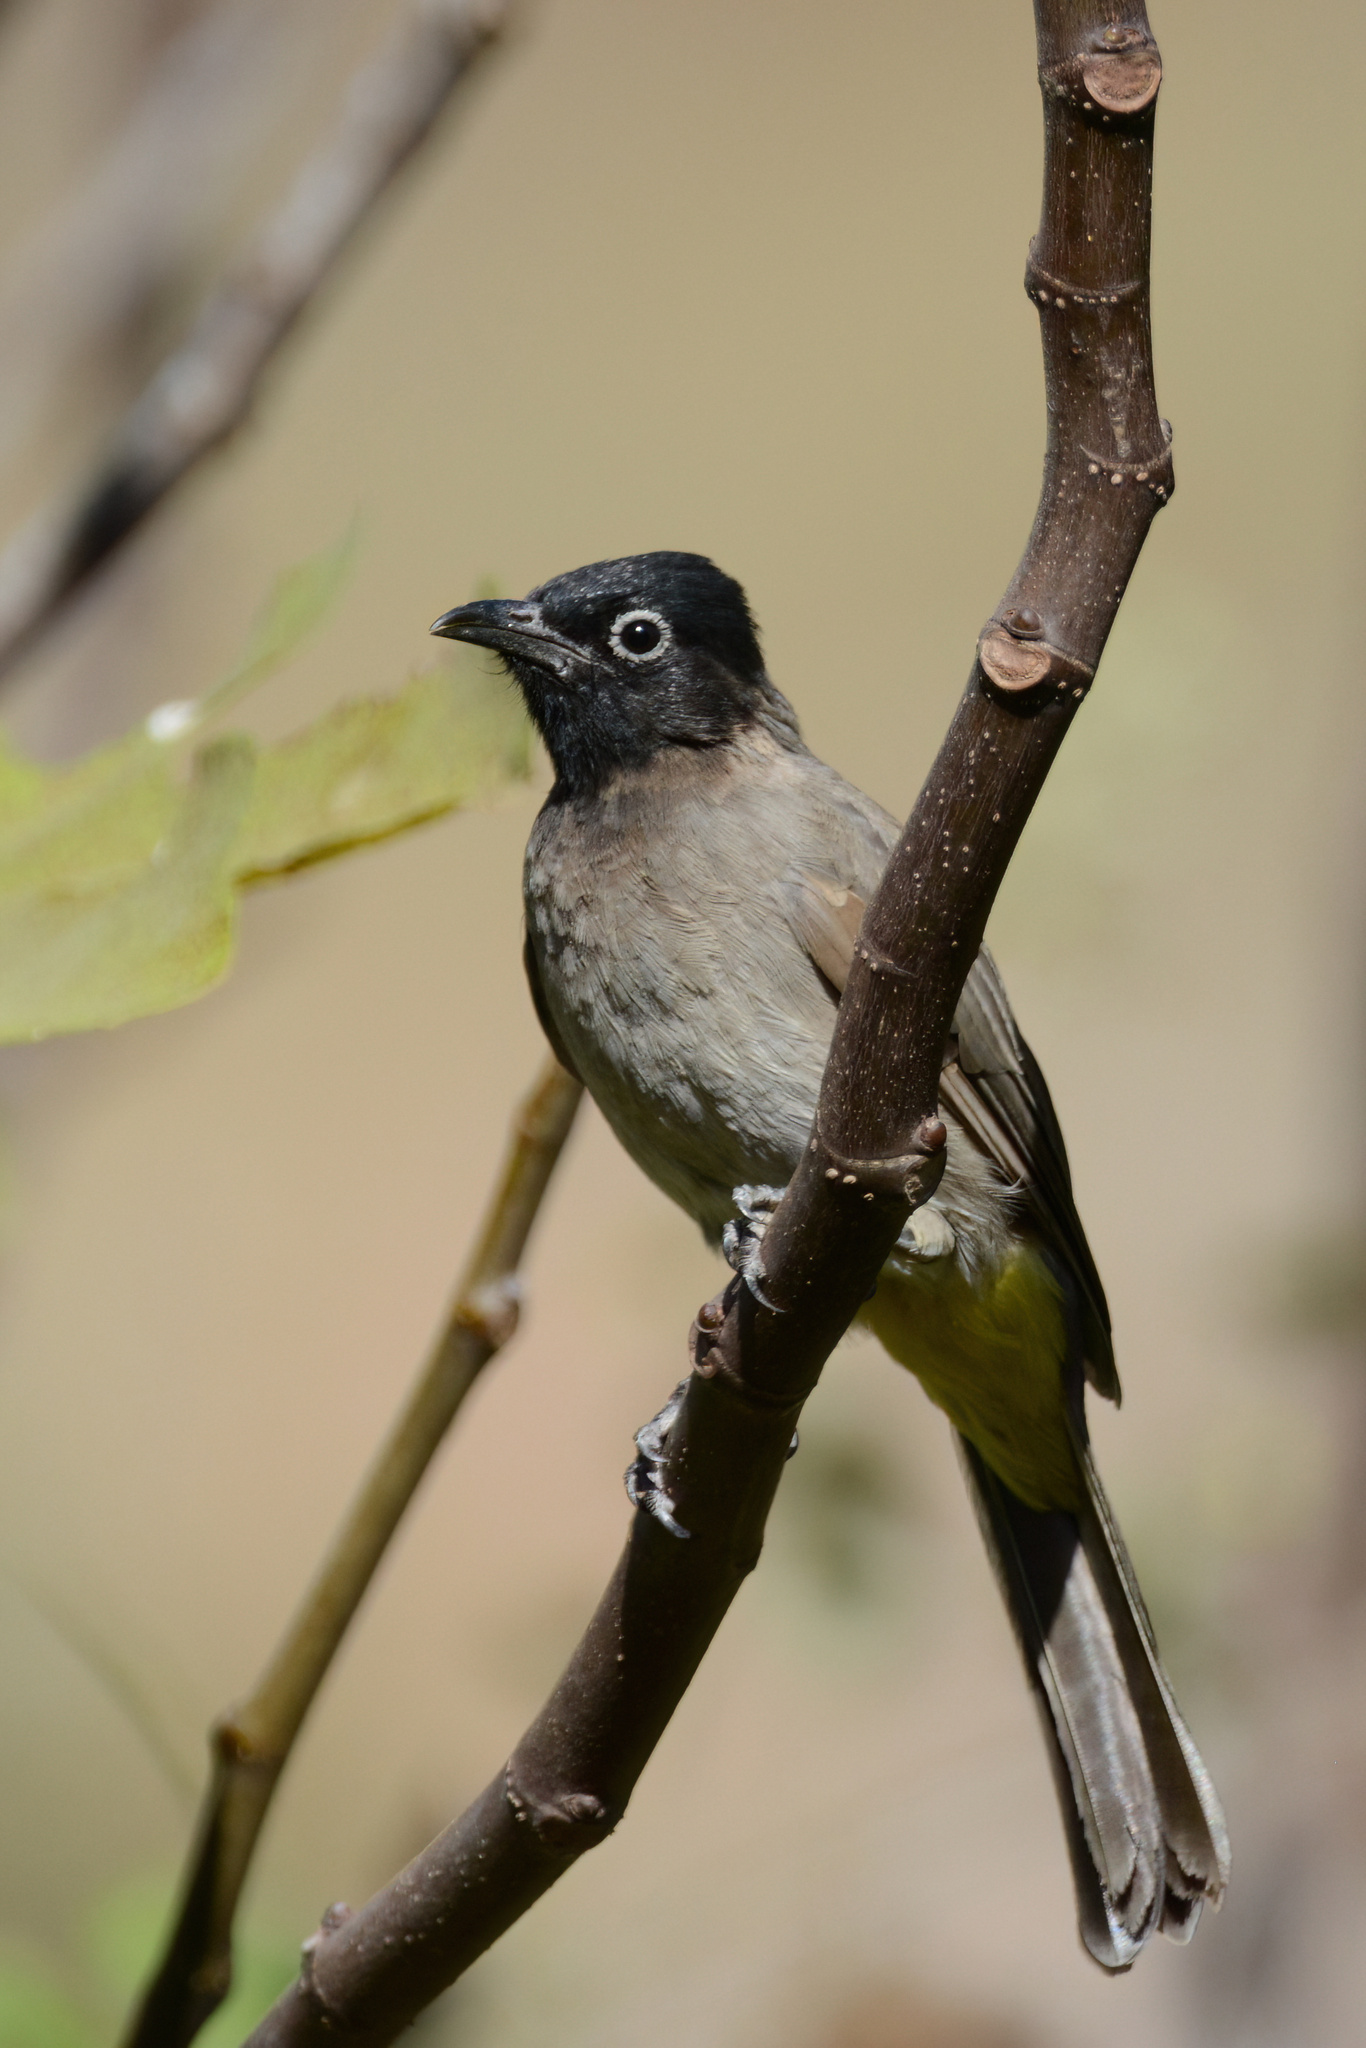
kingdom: Animalia
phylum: Chordata
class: Aves
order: Passeriformes
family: Pycnonotidae
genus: Pycnonotus
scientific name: Pycnonotus xanthopygos
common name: White-spectacled bulbul
